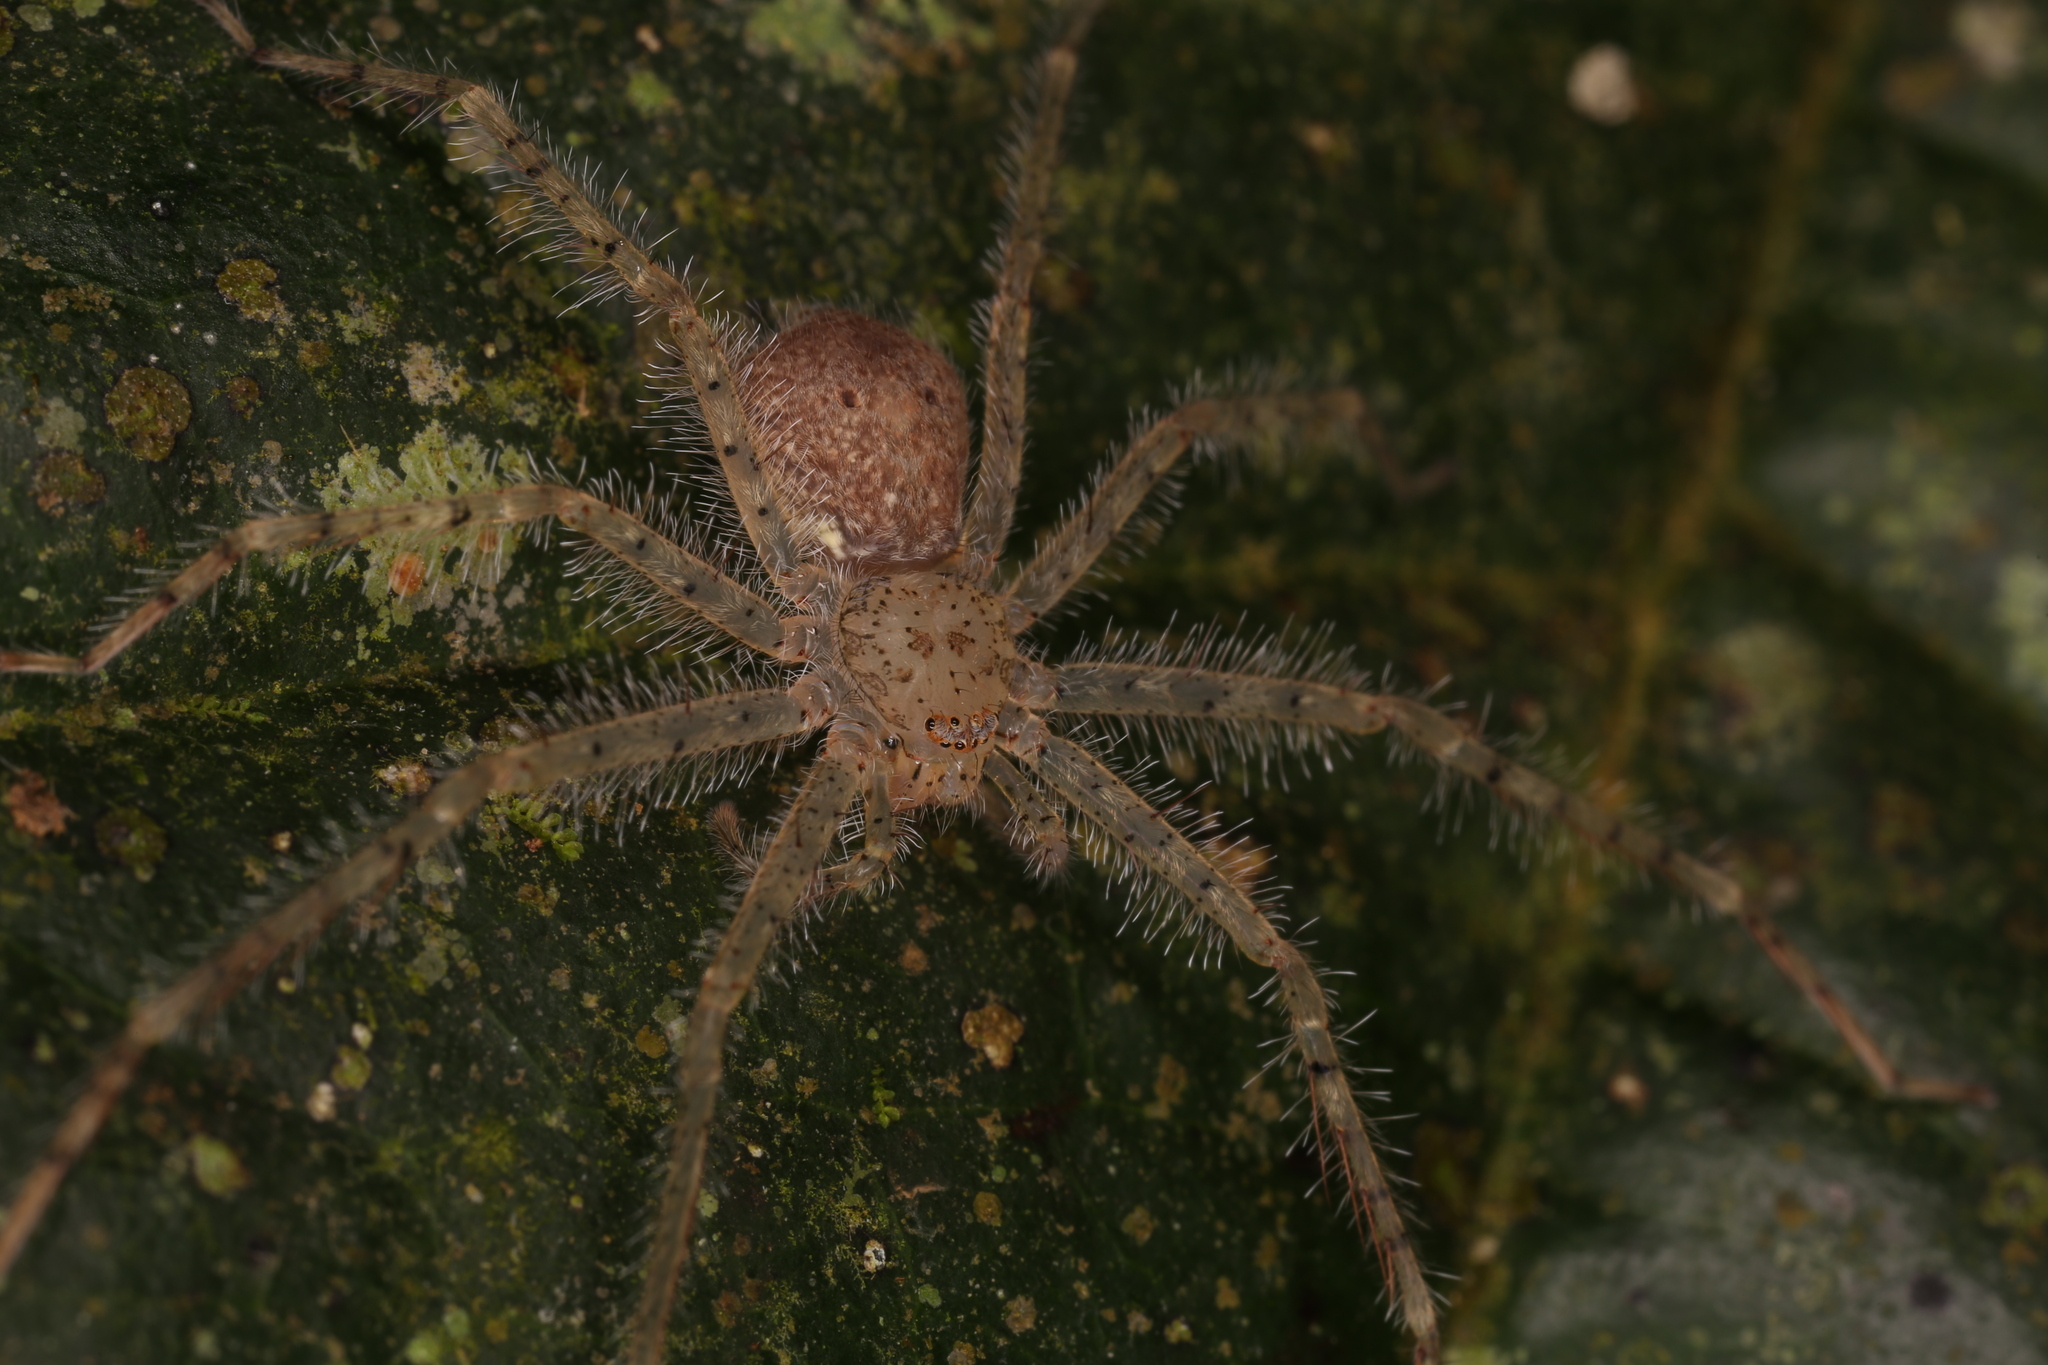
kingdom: Animalia
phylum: Arthropoda
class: Arachnida
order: Araneae
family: Sparassidae
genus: Sparianthina
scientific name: Sparianthina selenopoides
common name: Huntsman spiders
